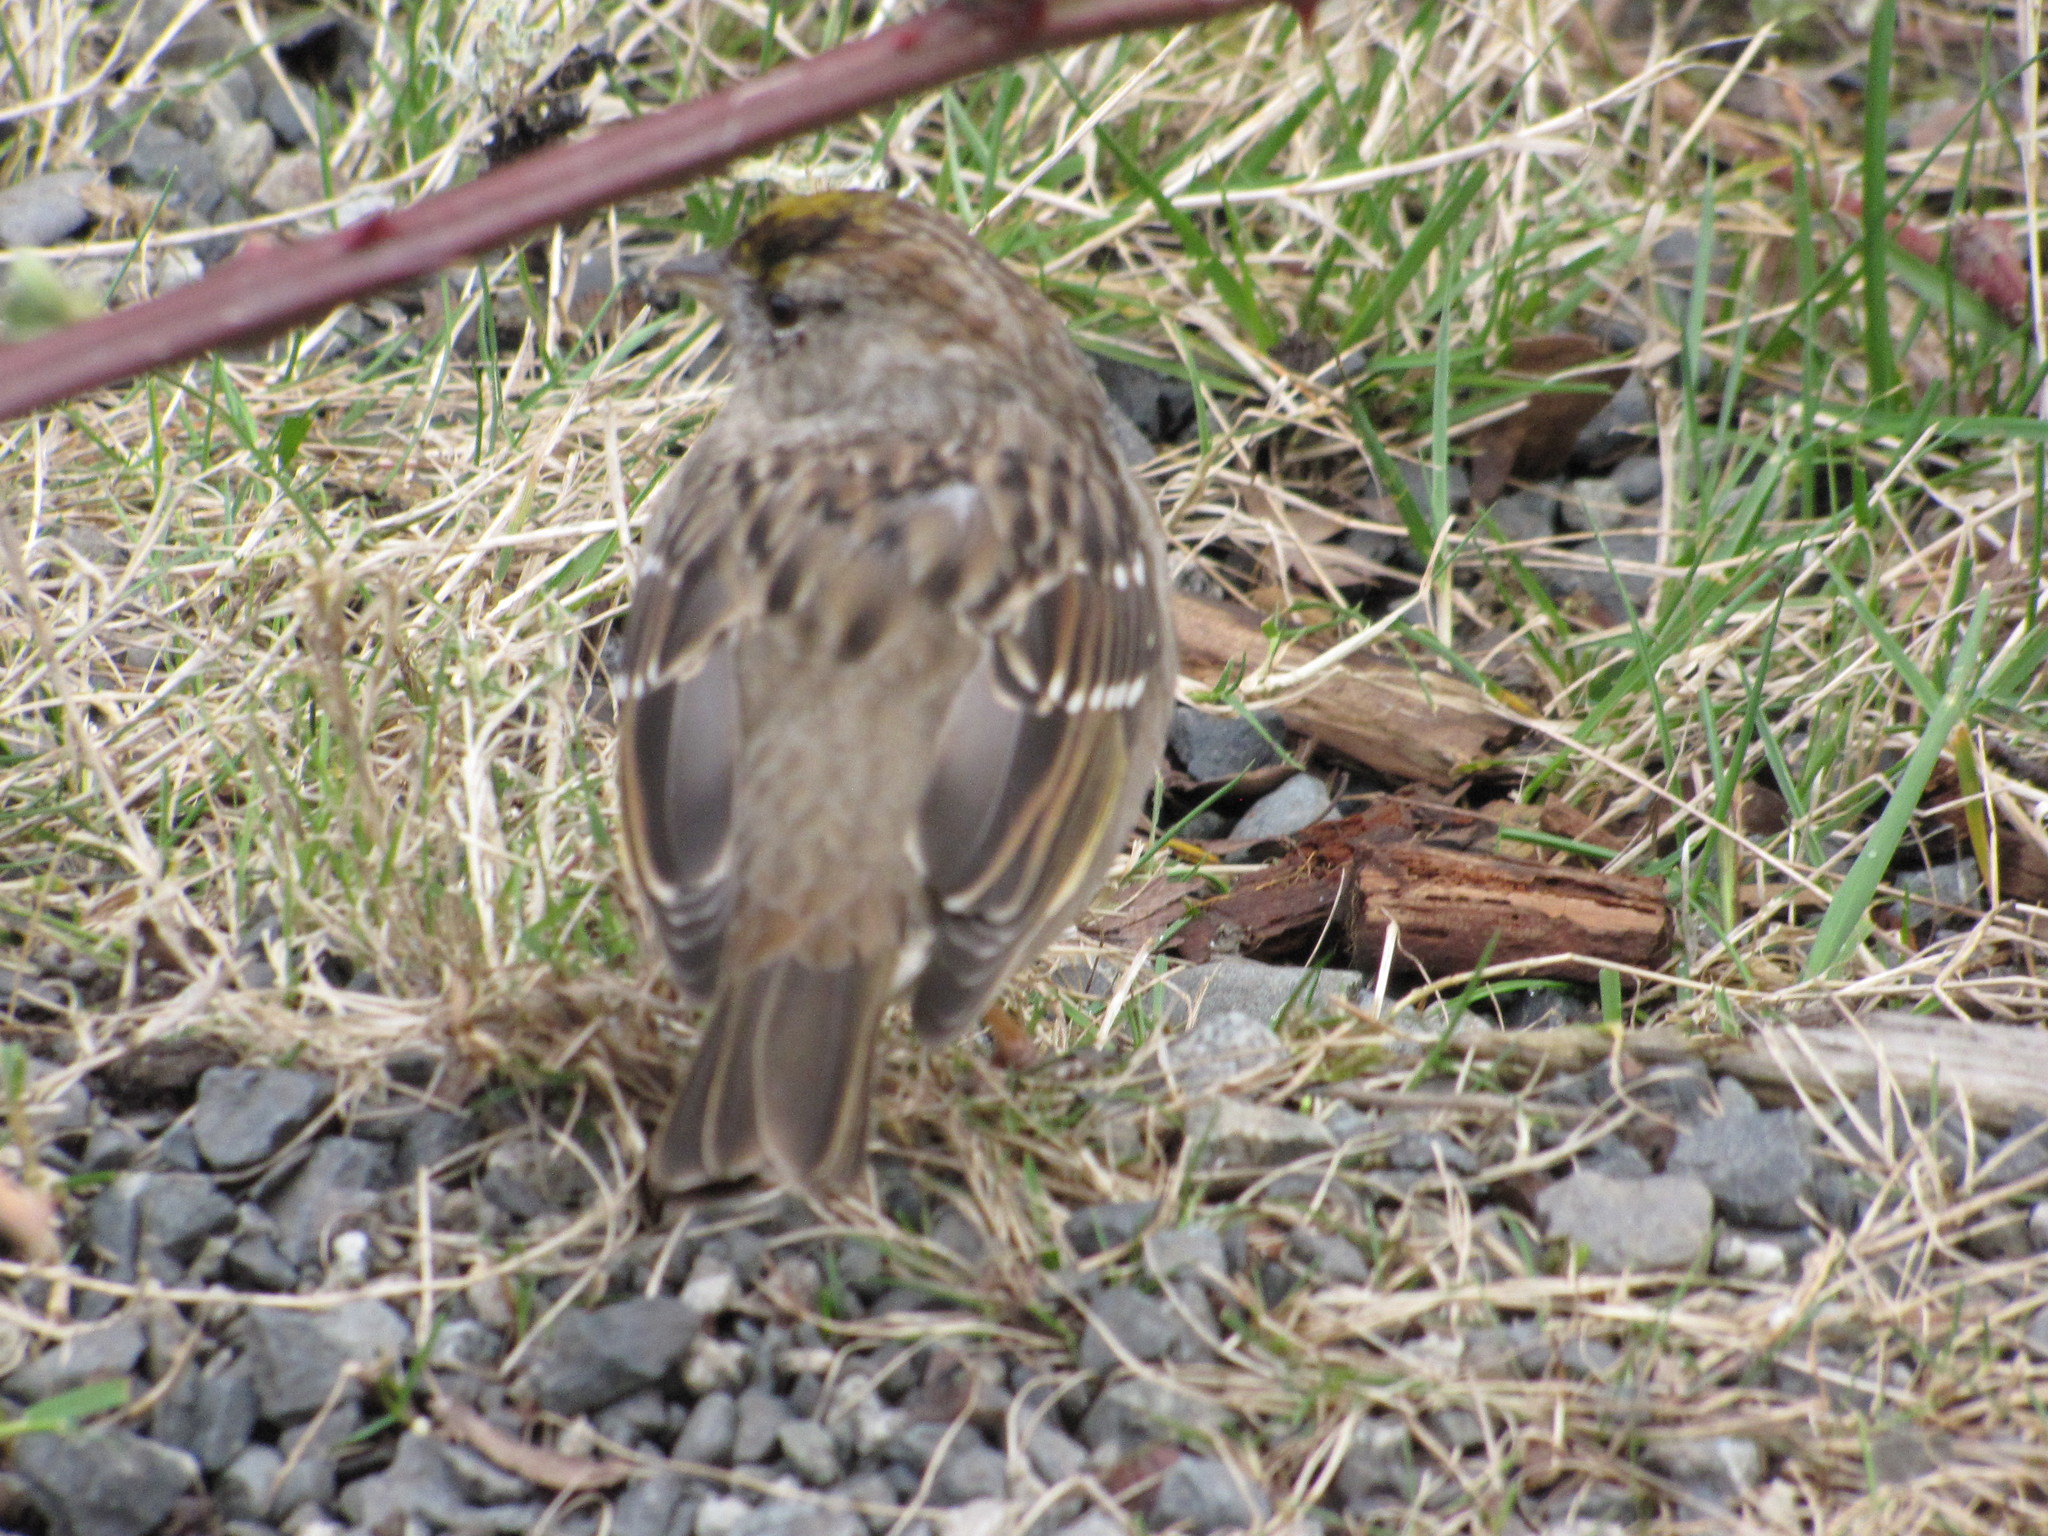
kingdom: Animalia
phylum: Chordata
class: Aves
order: Passeriformes
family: Passerellidae
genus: Zonotrichia
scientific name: Zonotrichia atricapilla
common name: Golden-crowned sparrow
